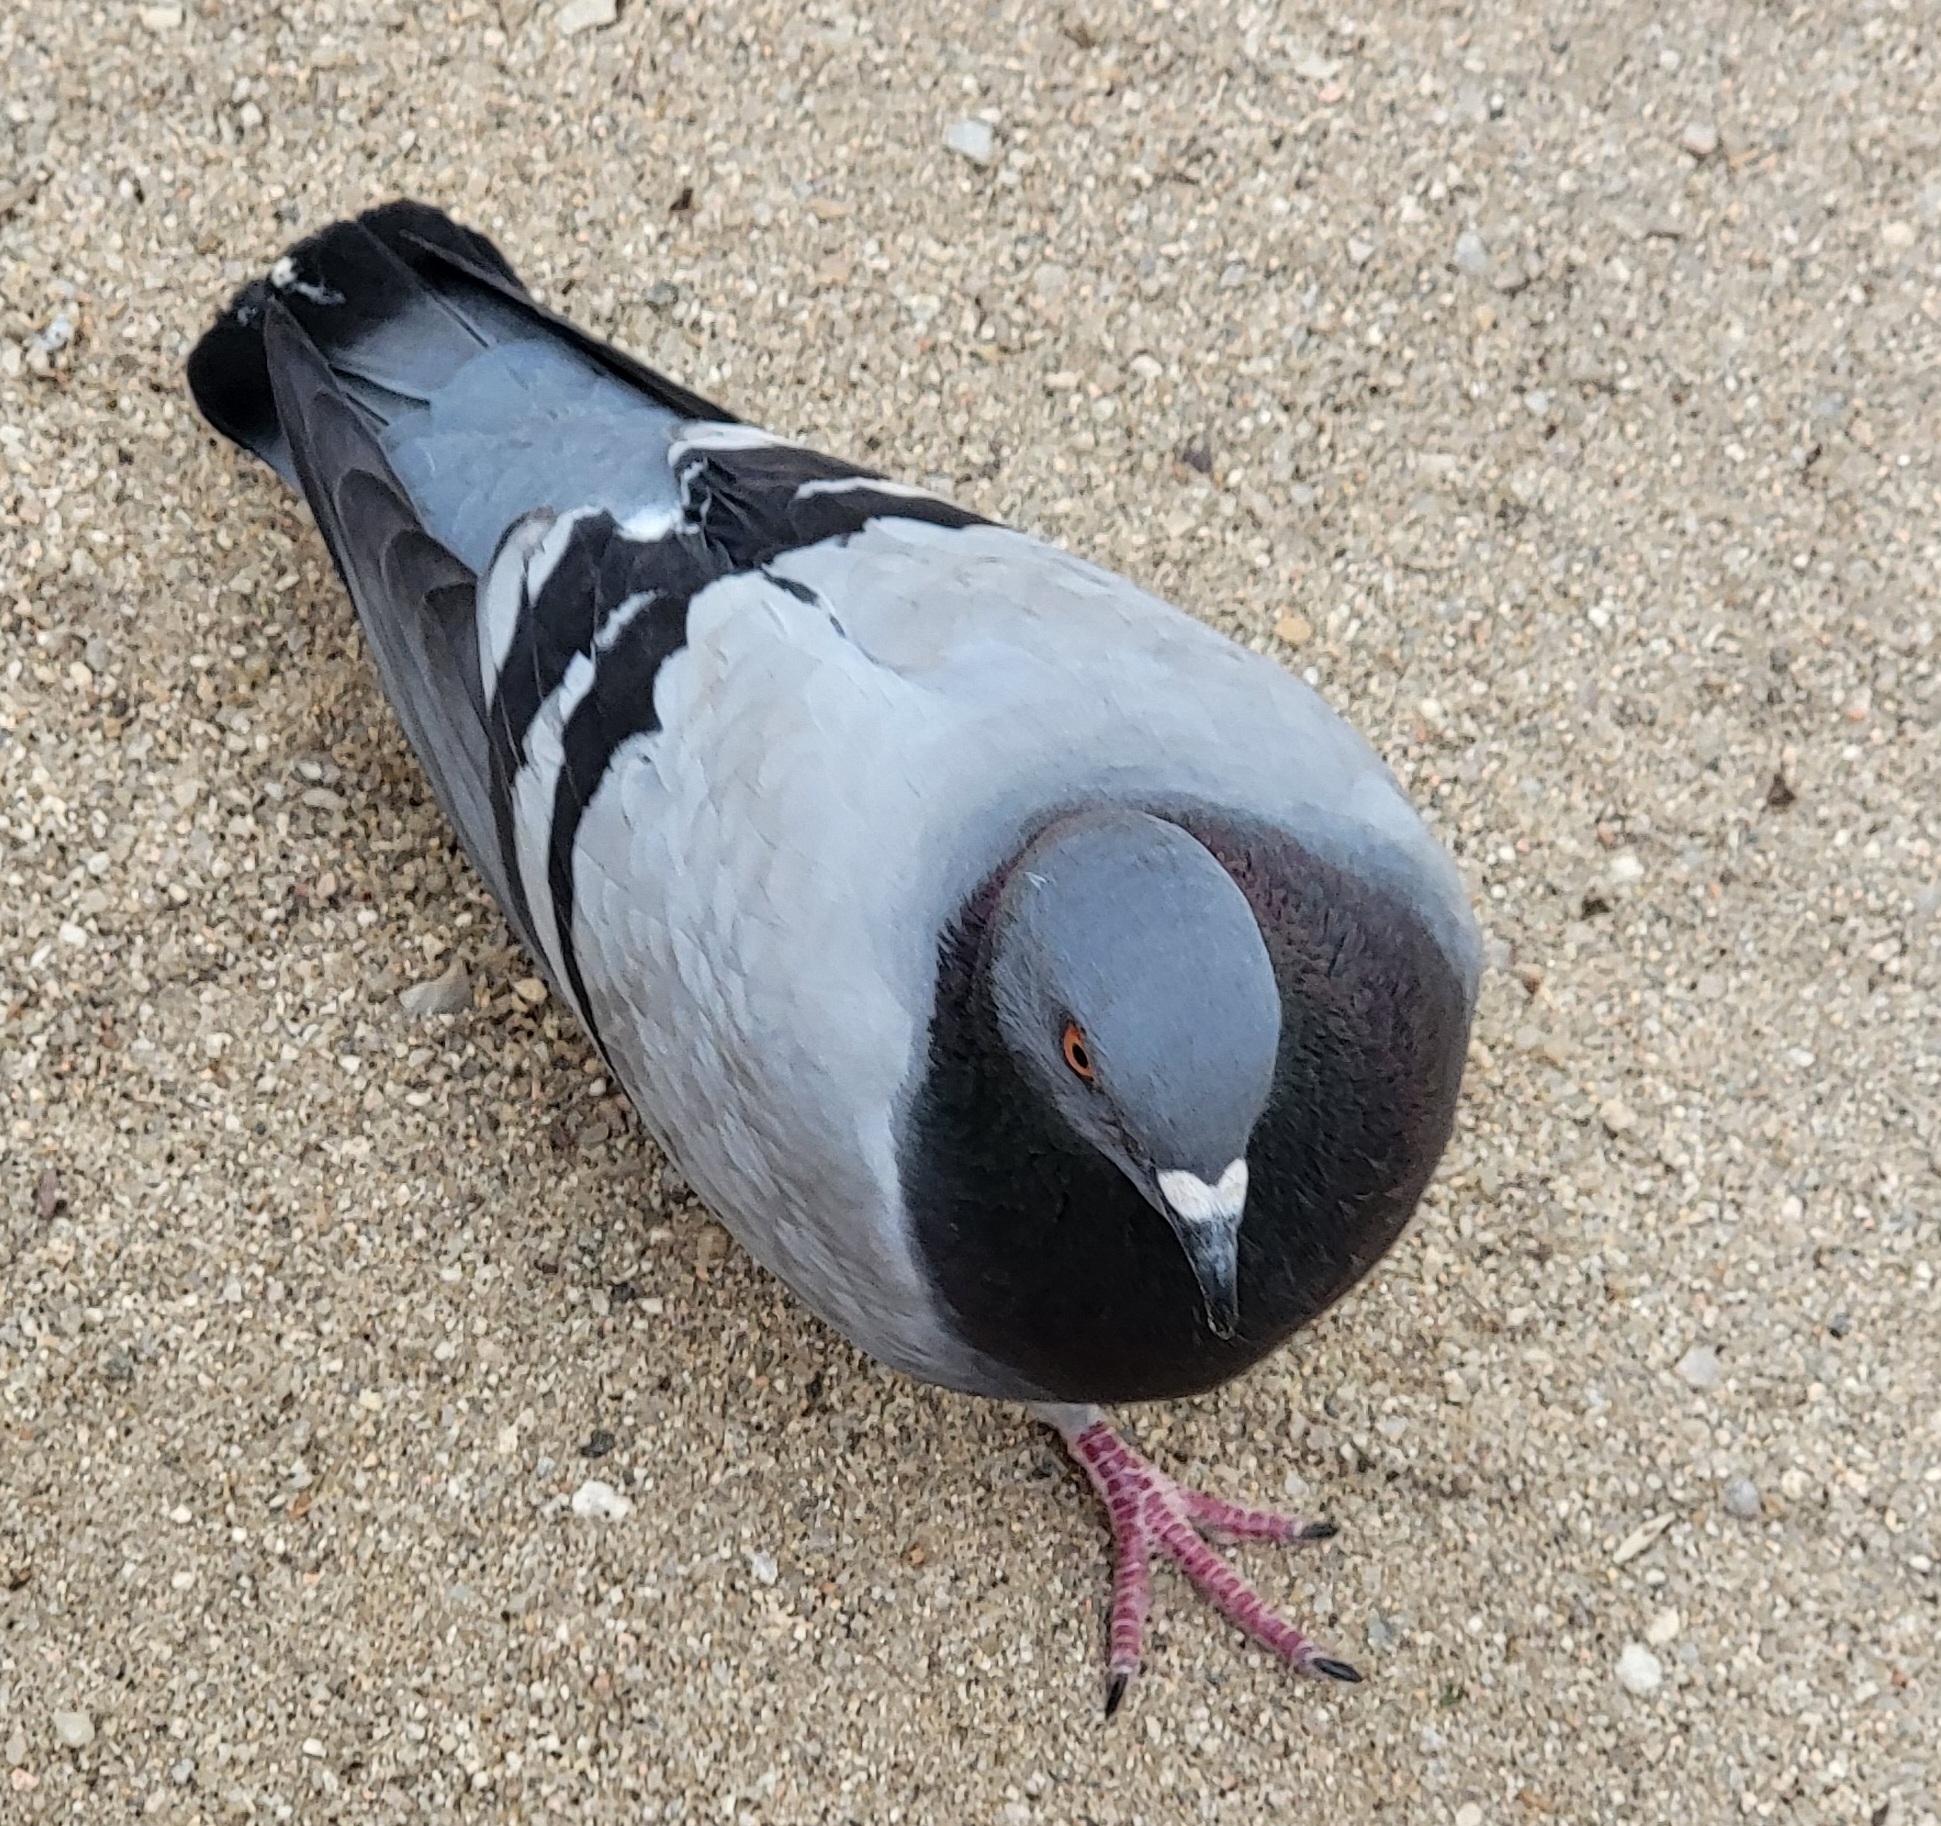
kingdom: Animalia
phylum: Chordata
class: Aves
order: Columbiformes
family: Columbidae
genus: Columba
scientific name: Columba livia
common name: Rock pigeon
